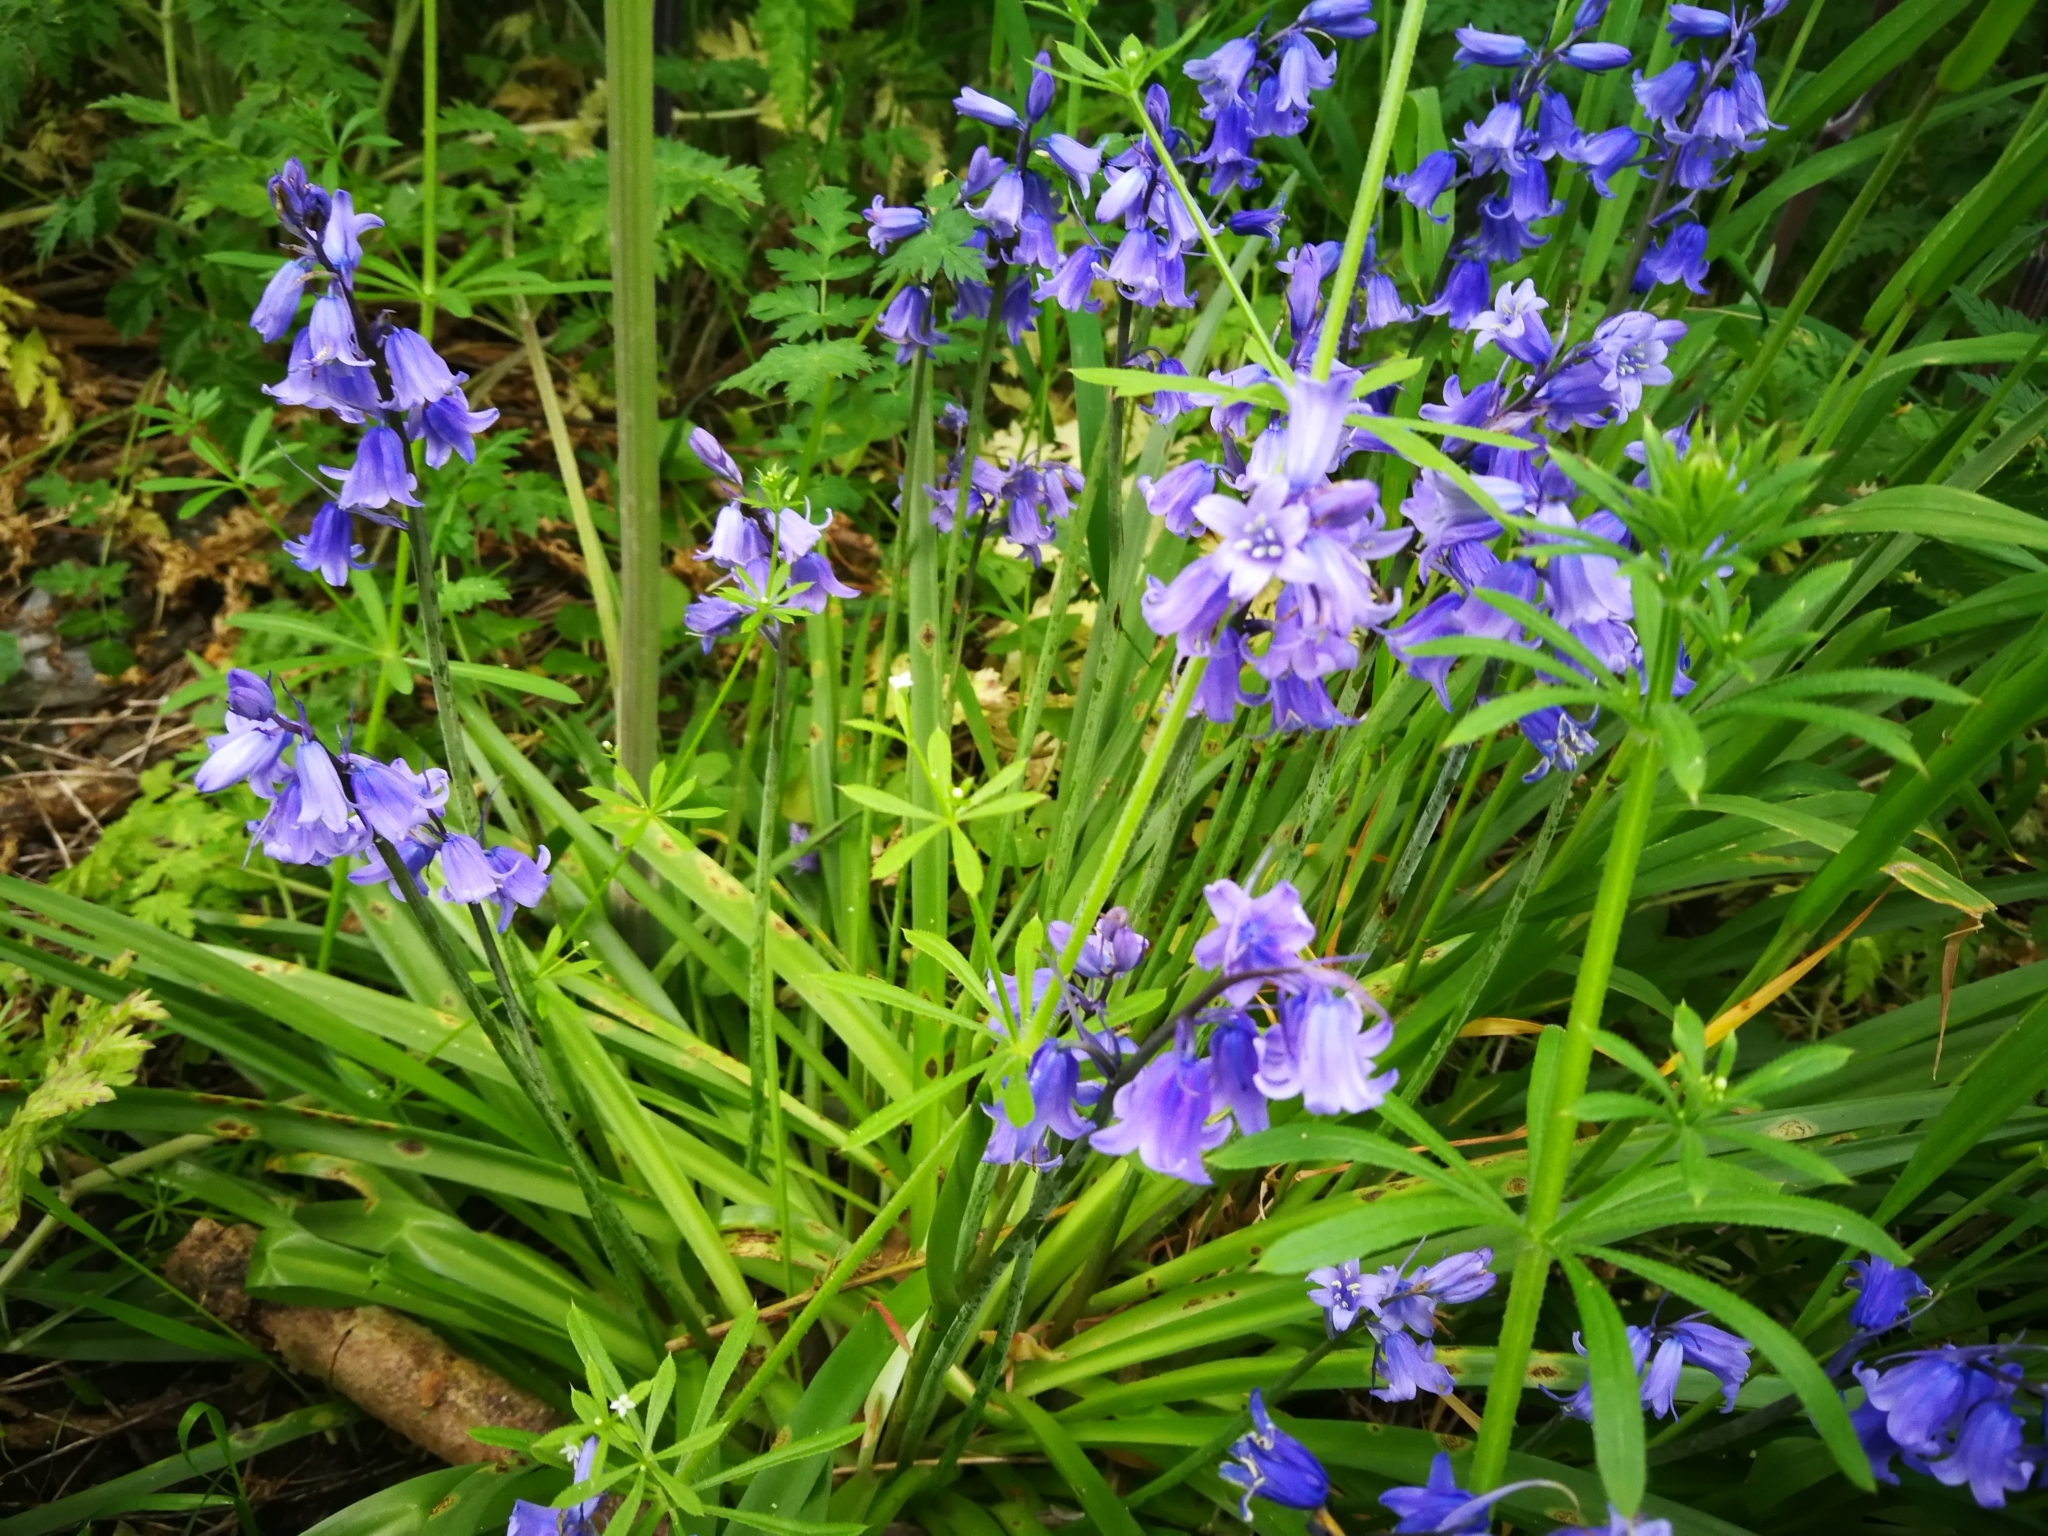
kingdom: Plantae
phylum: Tracheophyta
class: Liliopsida
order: Asparagales
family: Asparagaceae
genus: Hyacinthoides
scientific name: Hyacinthoides massartiana
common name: Hyacinthoides
